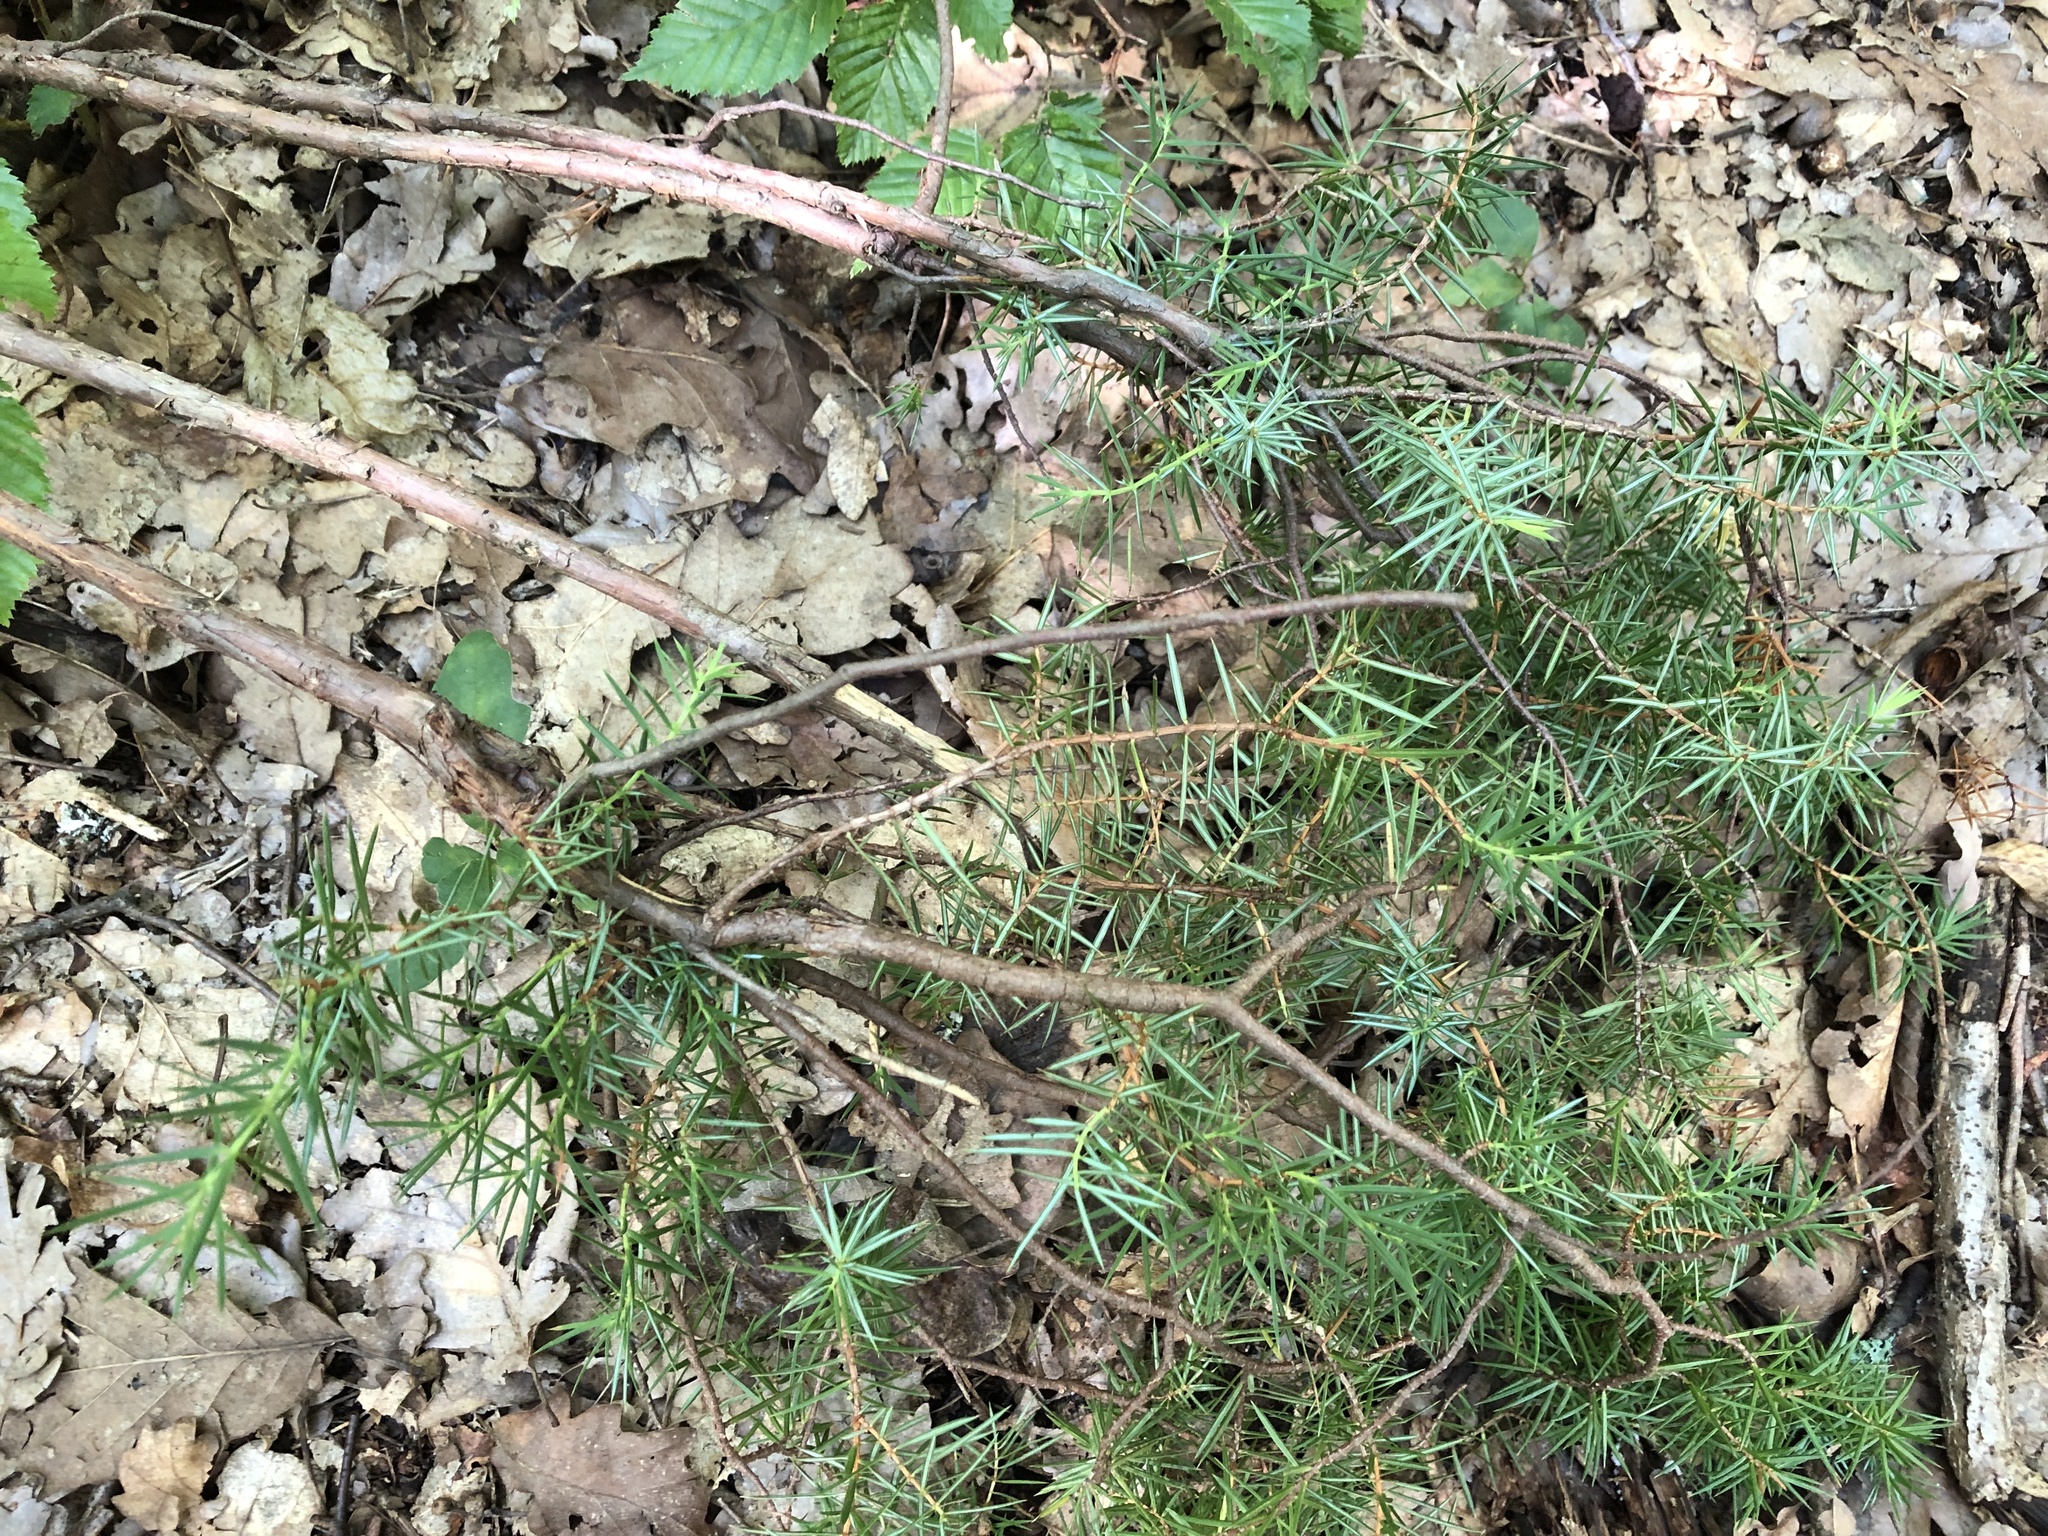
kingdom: Plantae
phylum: Tracheophyta
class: Pinopsida
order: Pinales
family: Cupressaceae
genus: Juniperus
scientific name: Juniperus communis
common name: Common juniper
